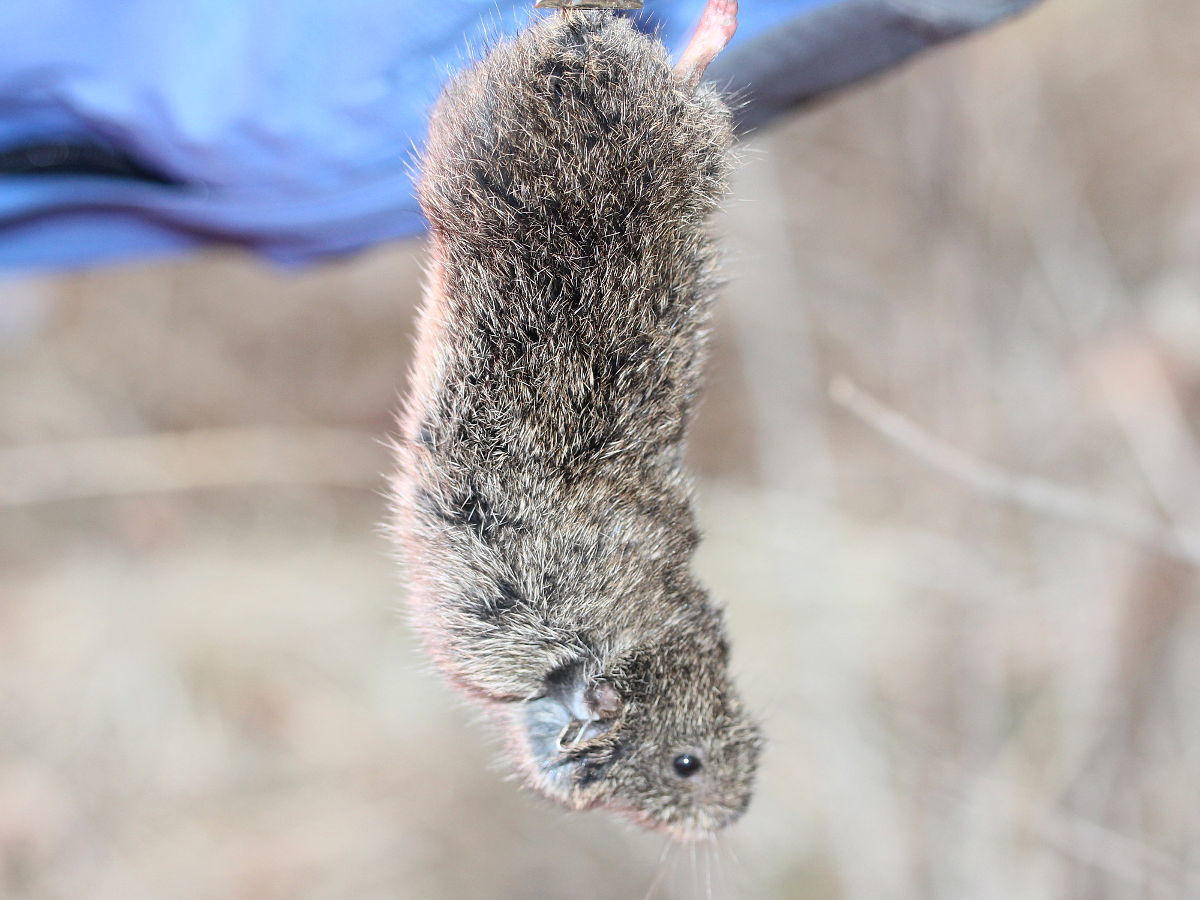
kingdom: Animalia
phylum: Chordata
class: Mammalia
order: Rodentia
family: Cricetidae
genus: Microtus
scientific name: Microtus ochrogaster
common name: Prairie vole
